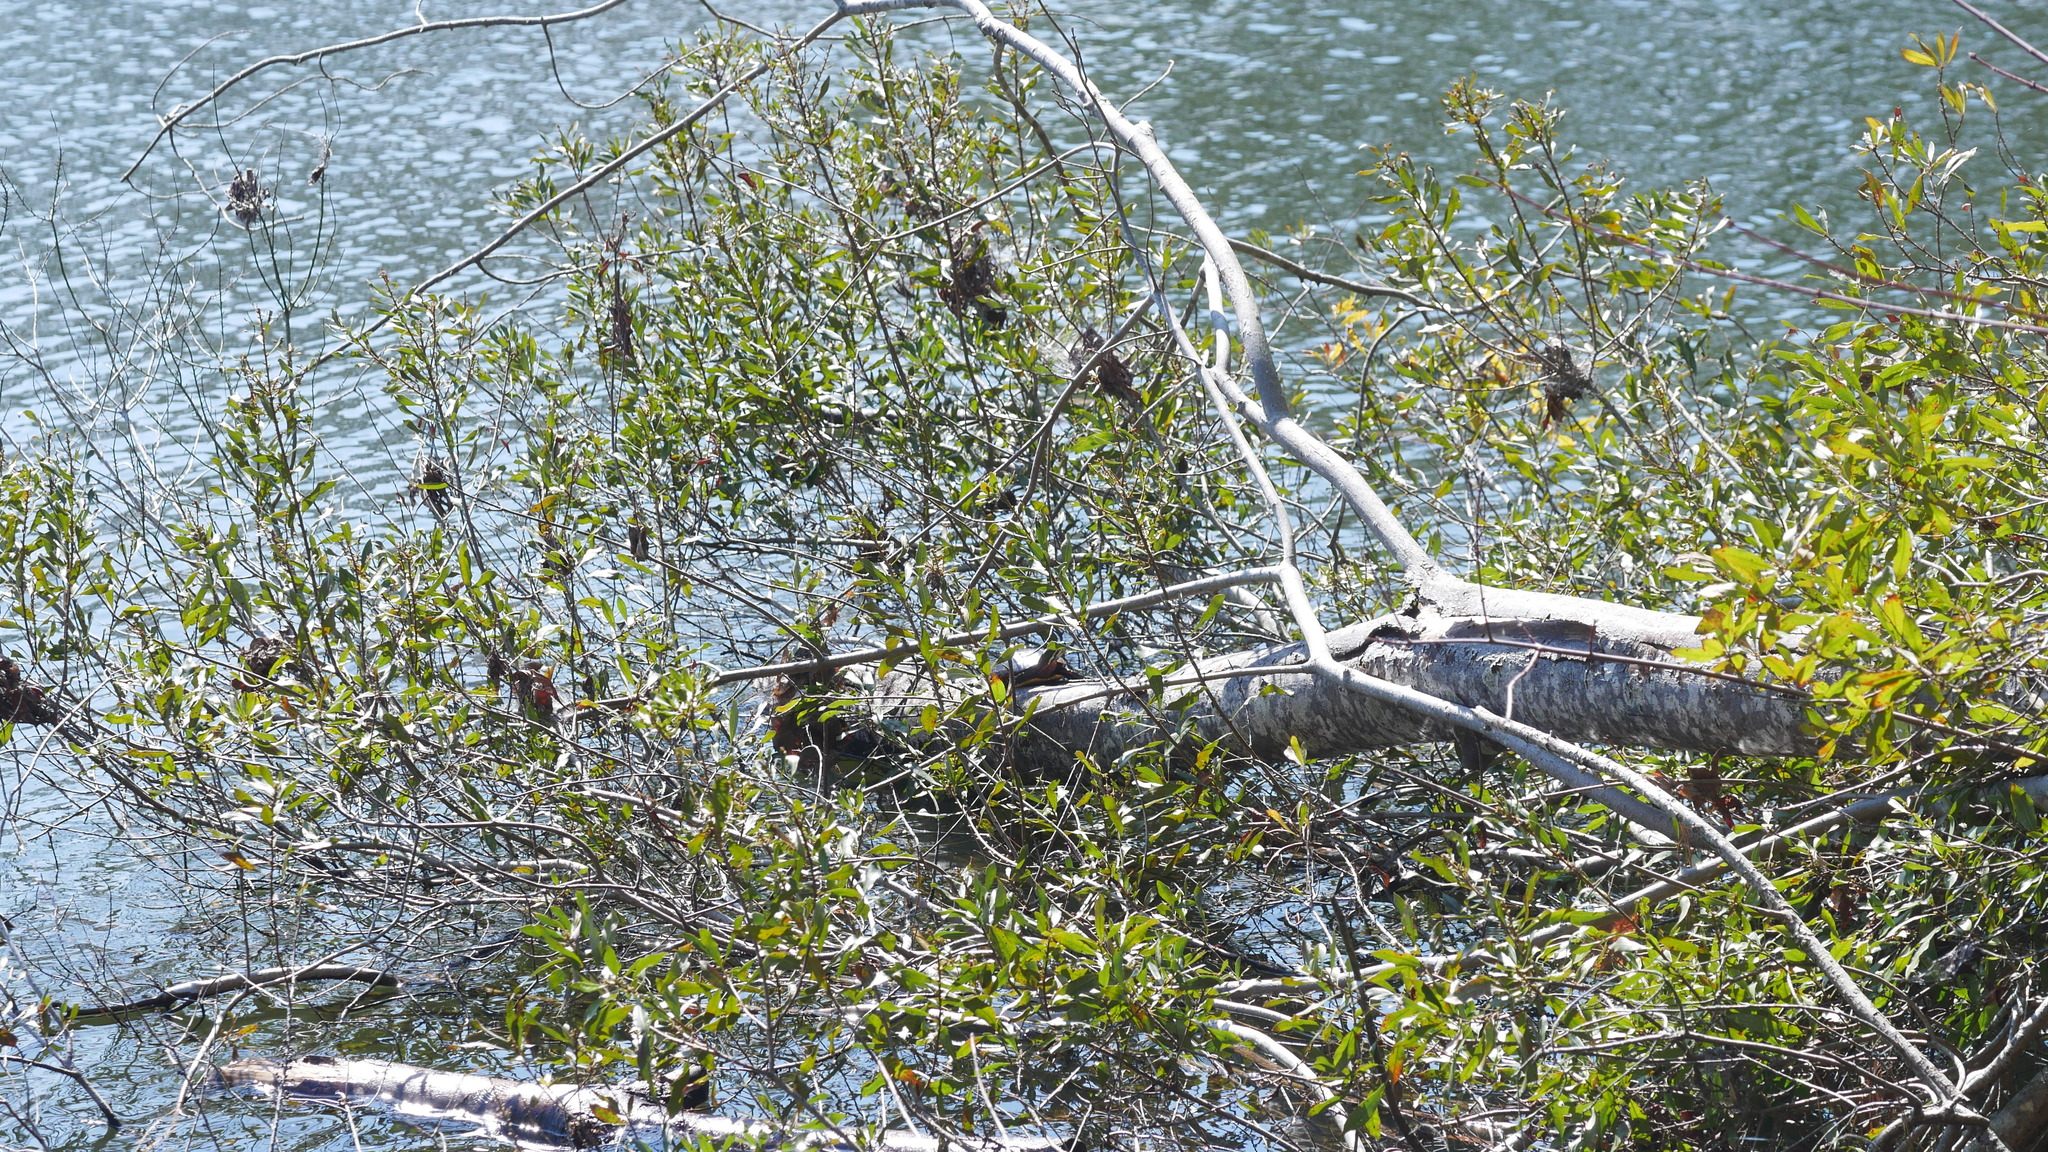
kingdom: Animalia
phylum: Chordata
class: Testudines
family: Emydidae
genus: Chrysemys
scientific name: Chrysemys picta
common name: Painted turtle
